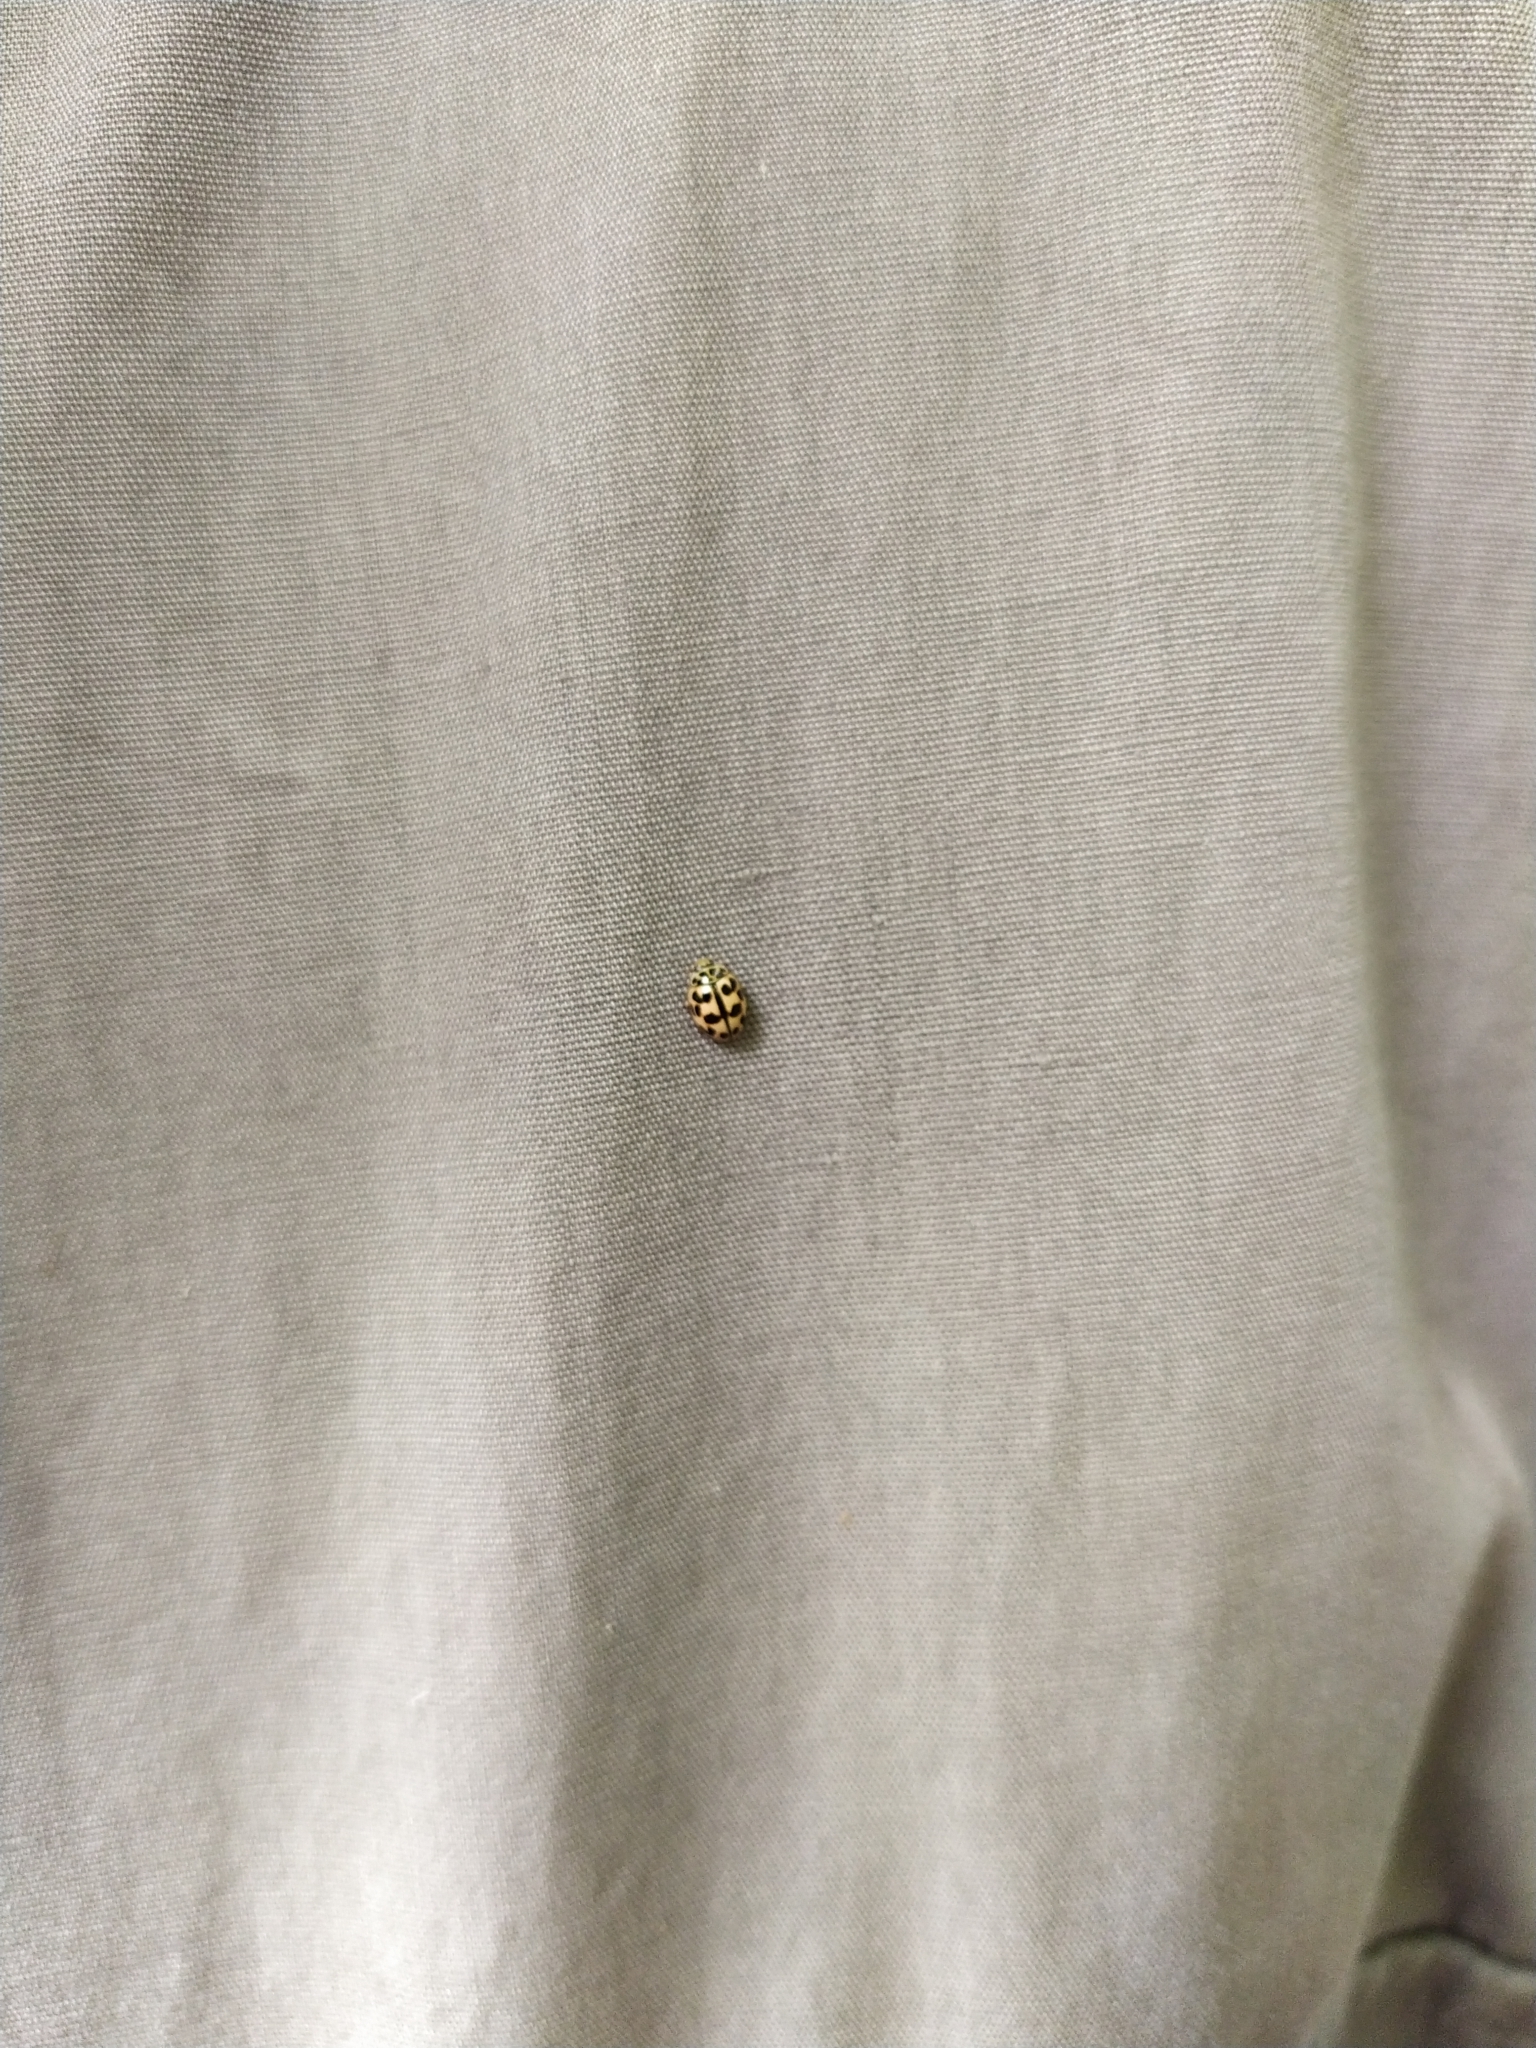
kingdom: Animalia
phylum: Arthropoda
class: Insecta
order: Coleoptera
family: Coccinellidae
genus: Oenopia
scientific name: Oenopia conglobata
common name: Ladybird beetle
